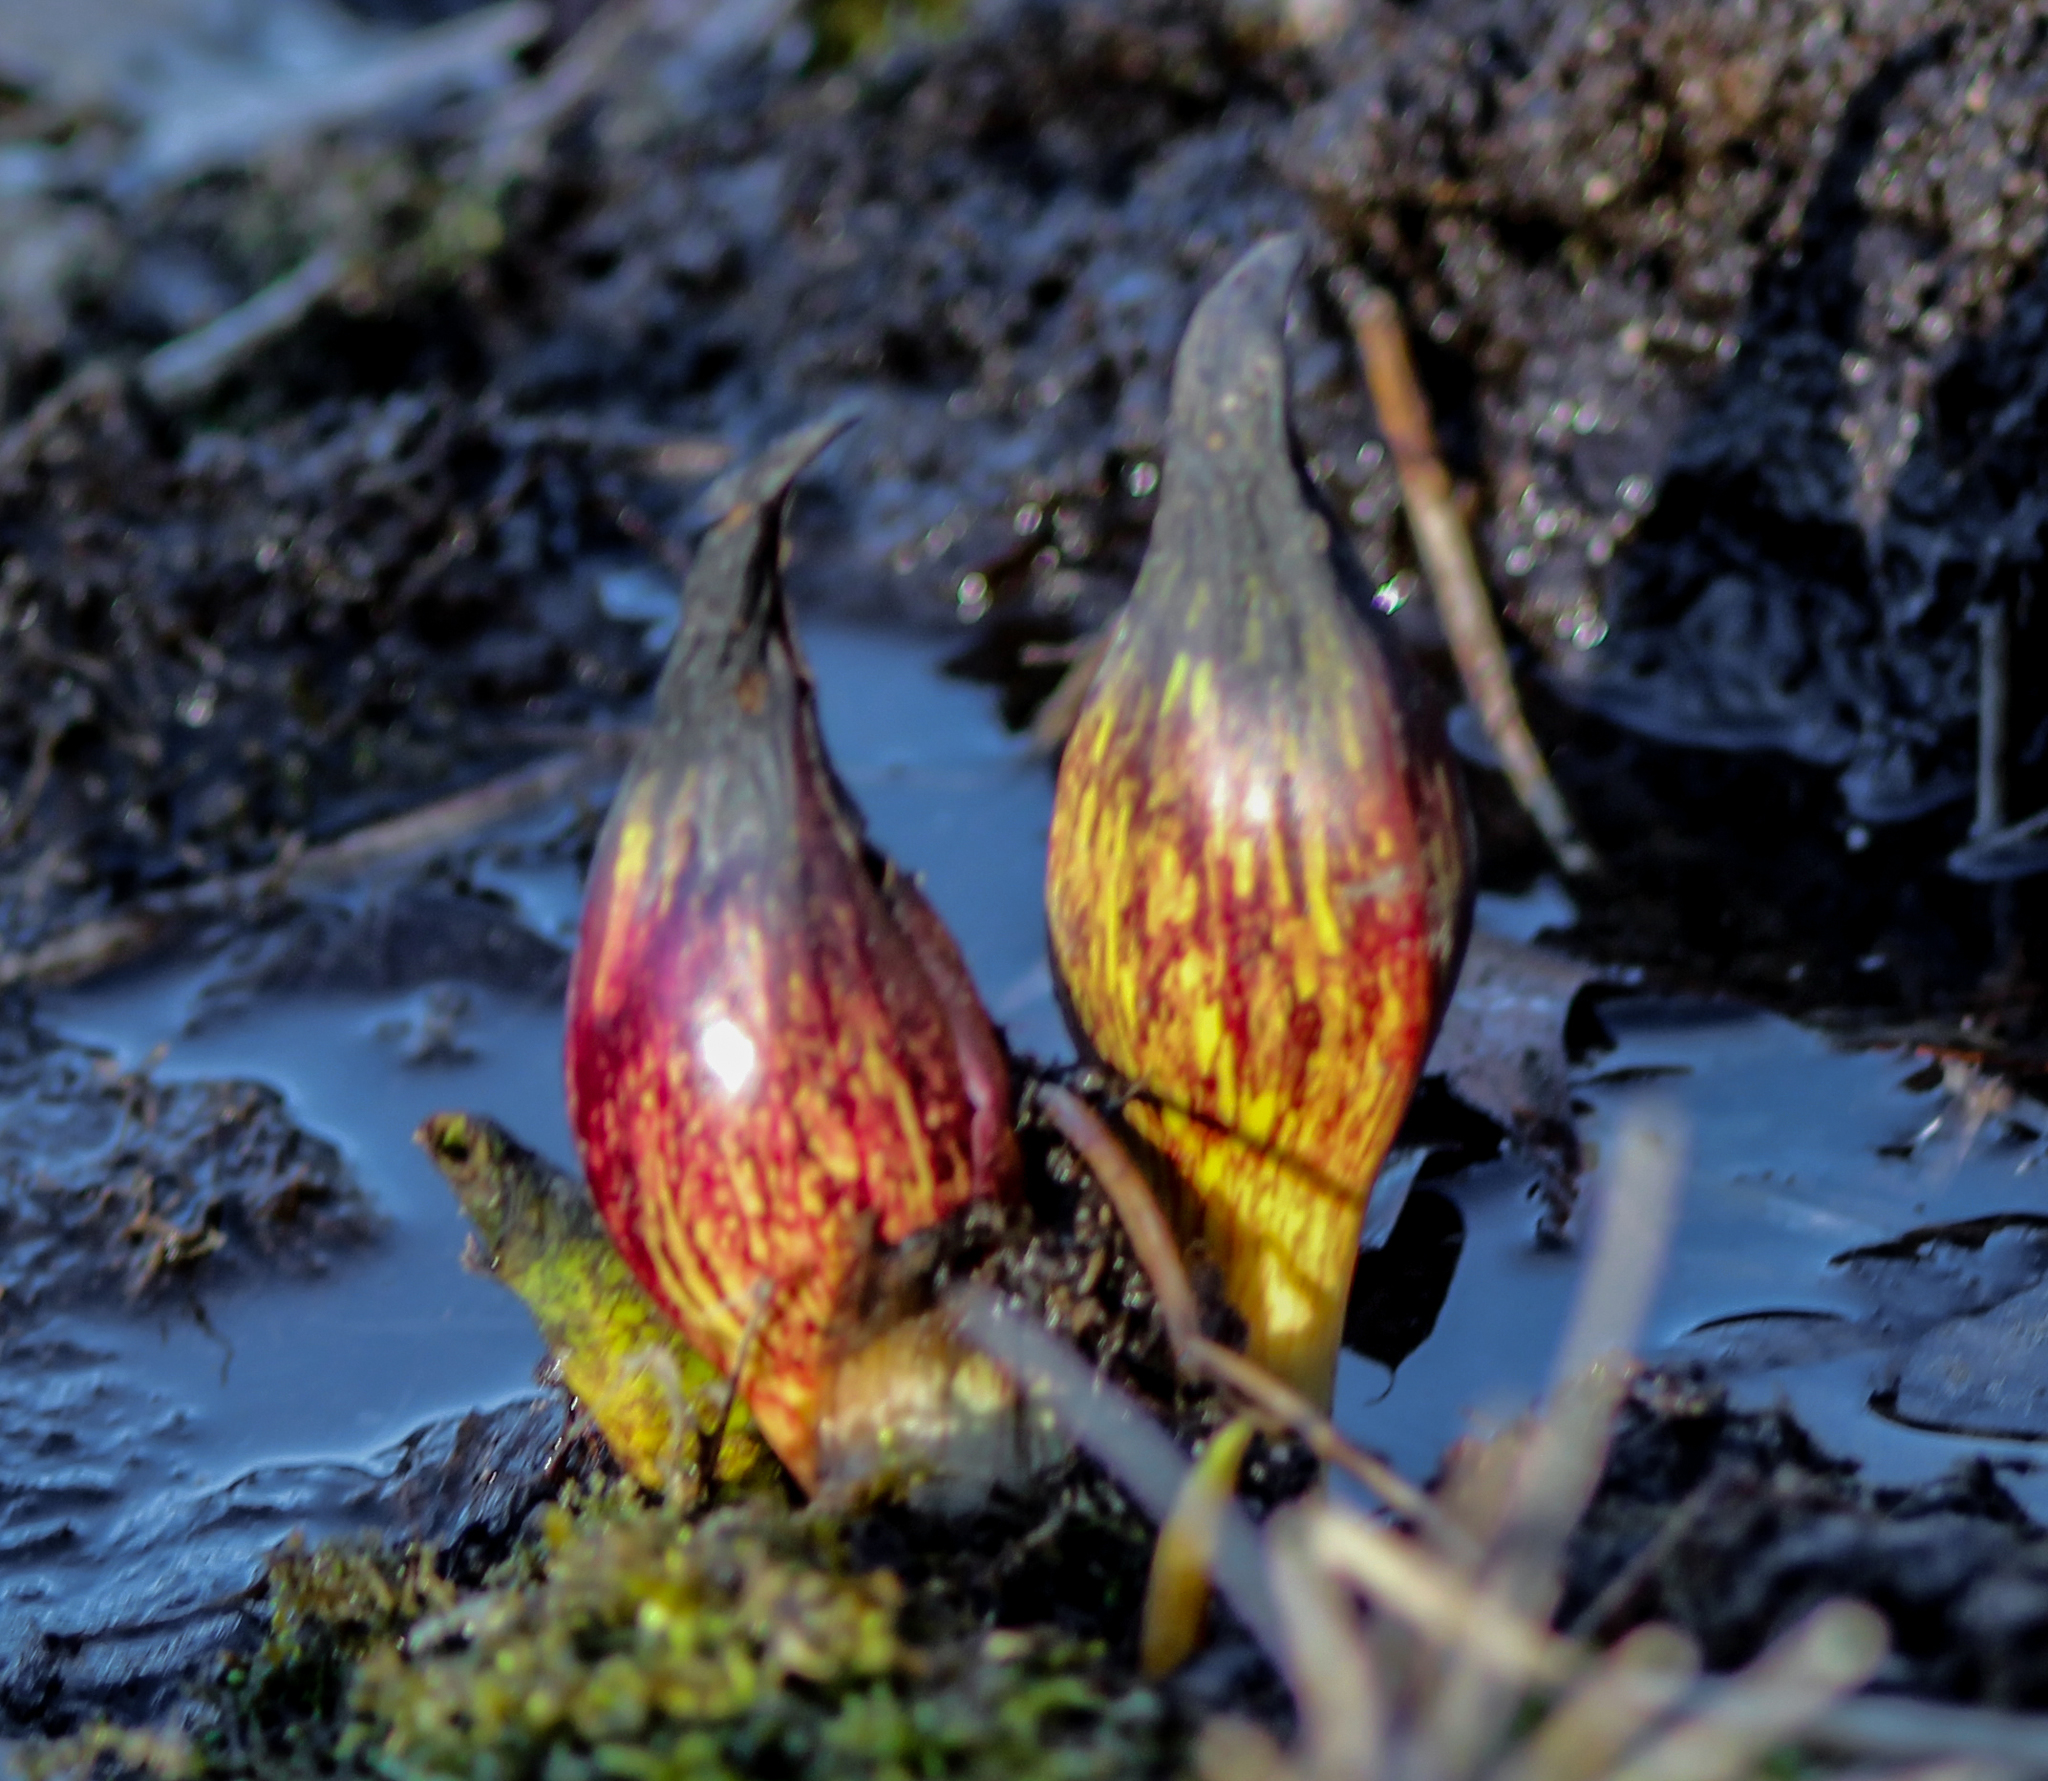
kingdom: Plantae
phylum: Tracheophyta
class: Liliopsida
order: Alismatales
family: Araceae
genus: Symplocarpus
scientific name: Symplocarpus foetidus
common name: Eastern skunk cabbage
